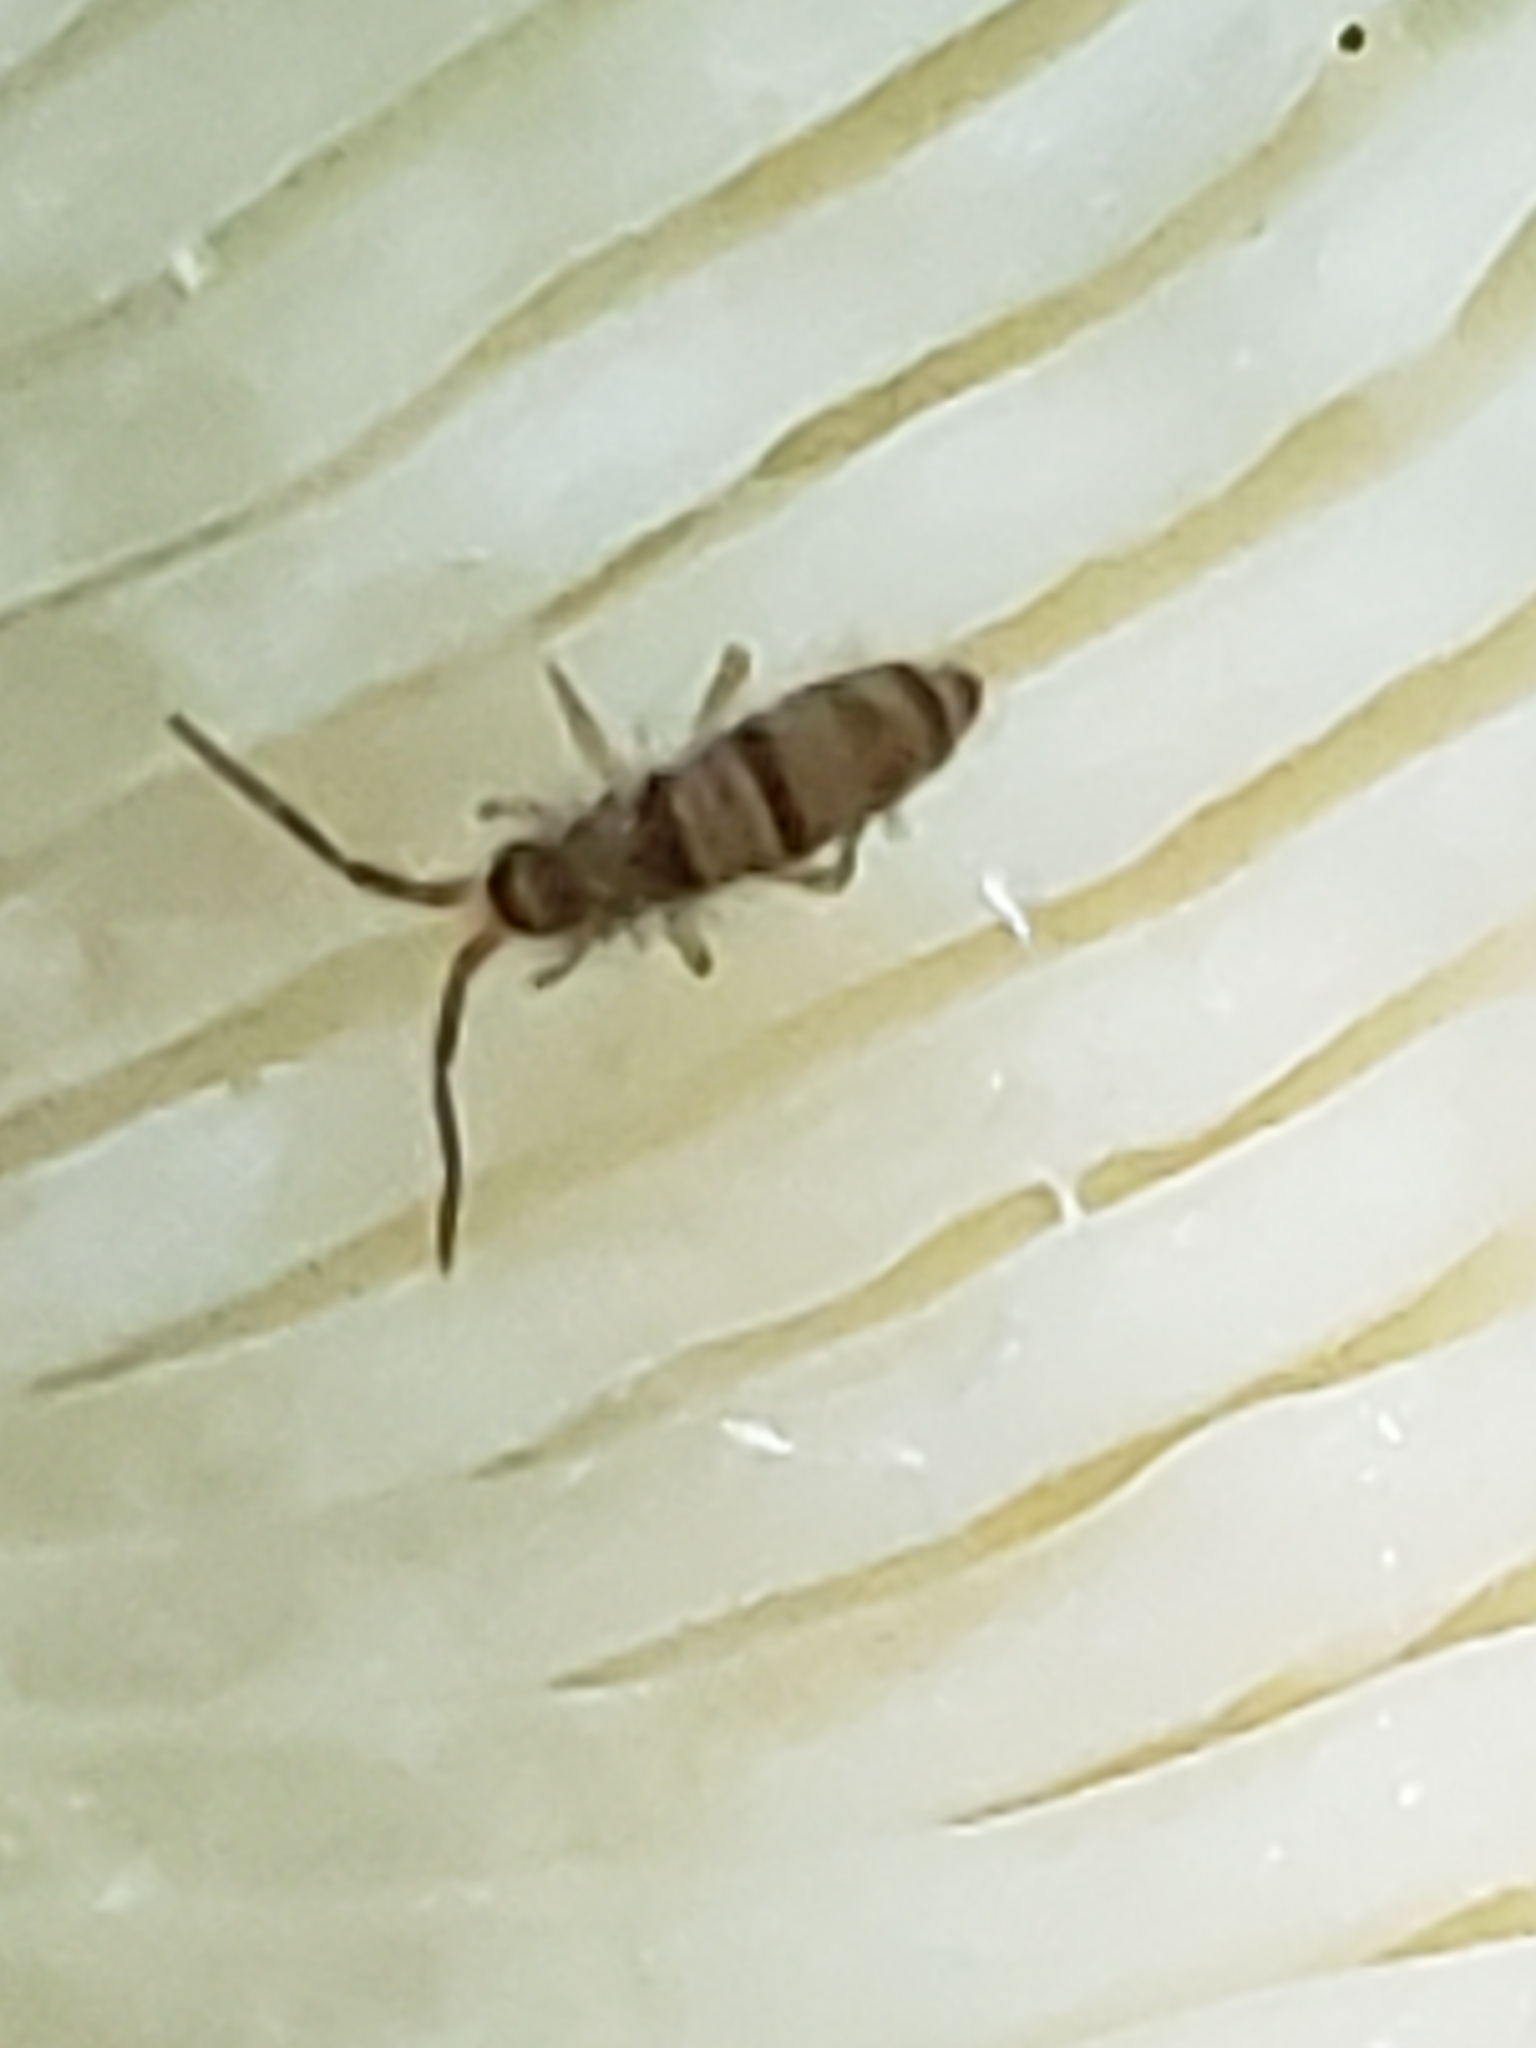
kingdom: Animalia
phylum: Arthropoda
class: Collembola
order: Entomobryomorpha
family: Entomobryidae
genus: Homidia
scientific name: Homidia sauteri
